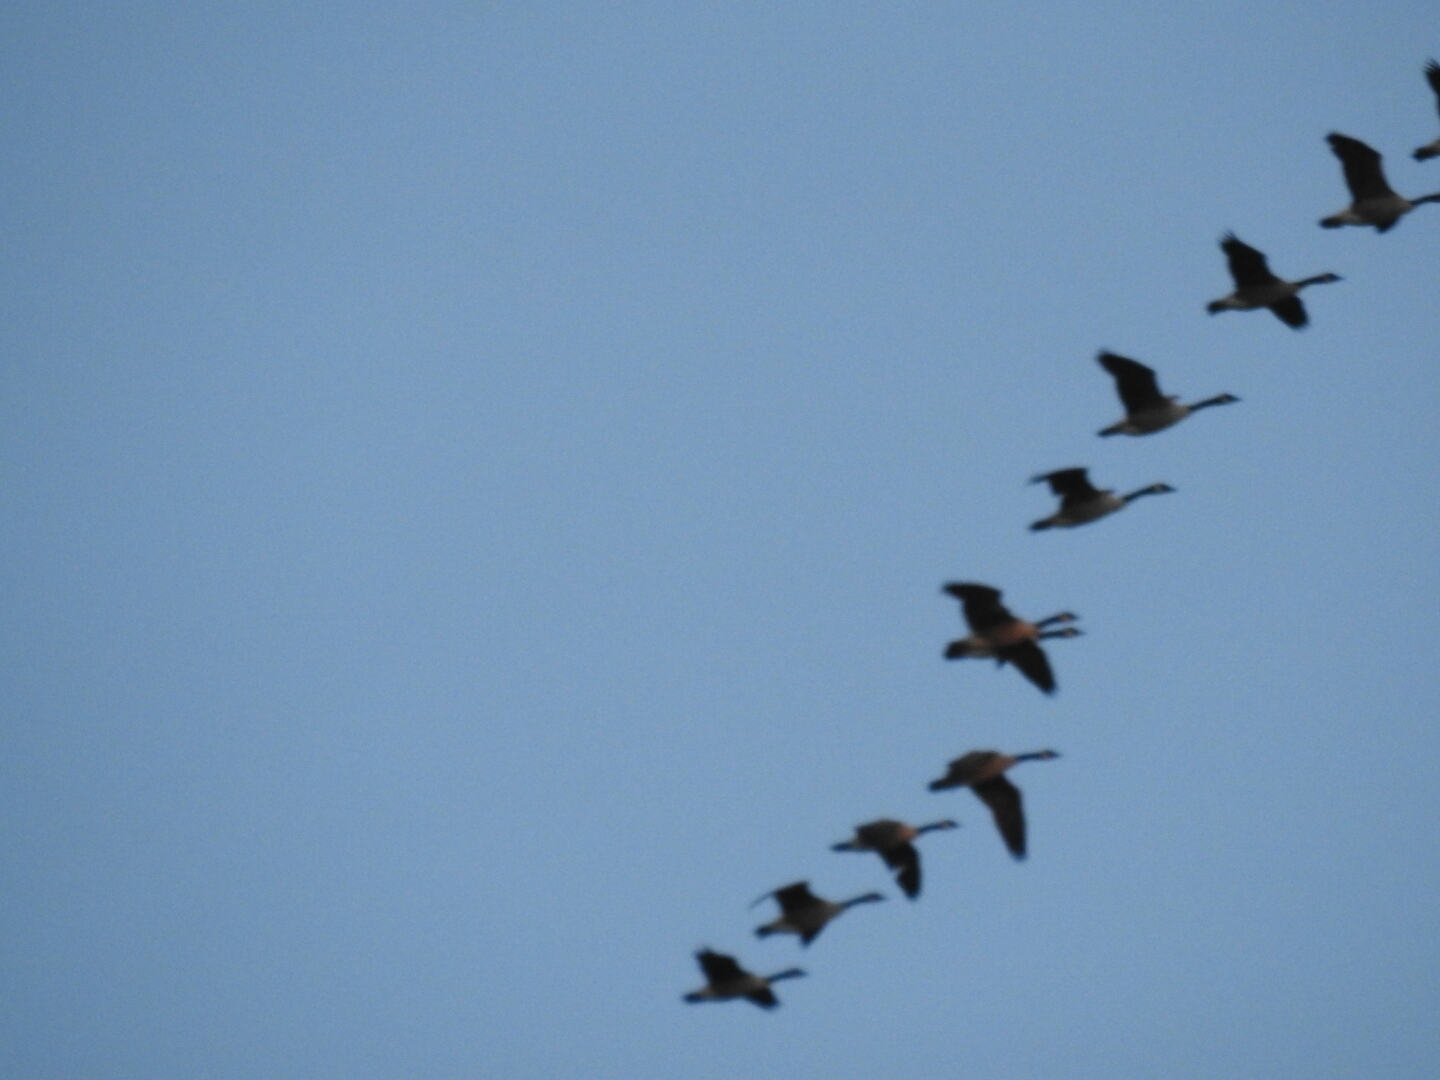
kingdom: Animalia
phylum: Chordata
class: Aves
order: Anseriformes
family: Anatidae
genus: Branta
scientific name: Branta canadensis
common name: Canada goose
